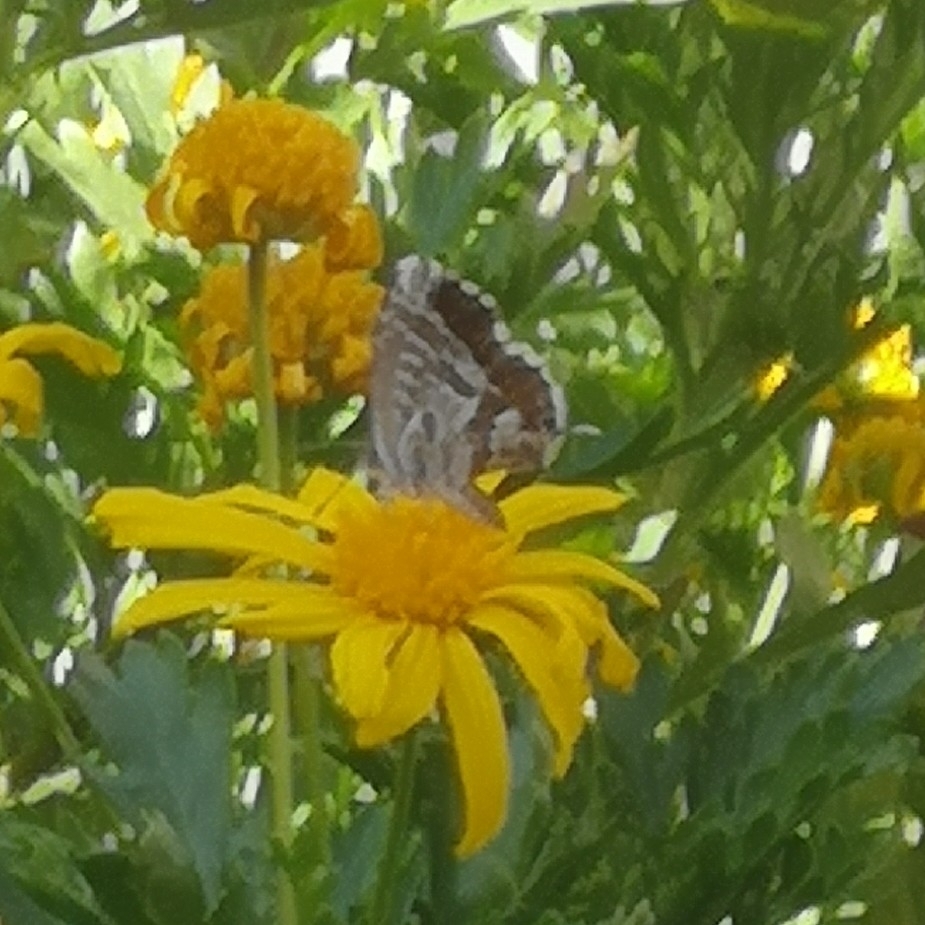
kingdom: Animalia
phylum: Arthropoda
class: Insecta
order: Lepidoptera
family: Lycaenidae
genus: Cacyreus
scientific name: Cacyreus marshalli
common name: Geranium bronze
